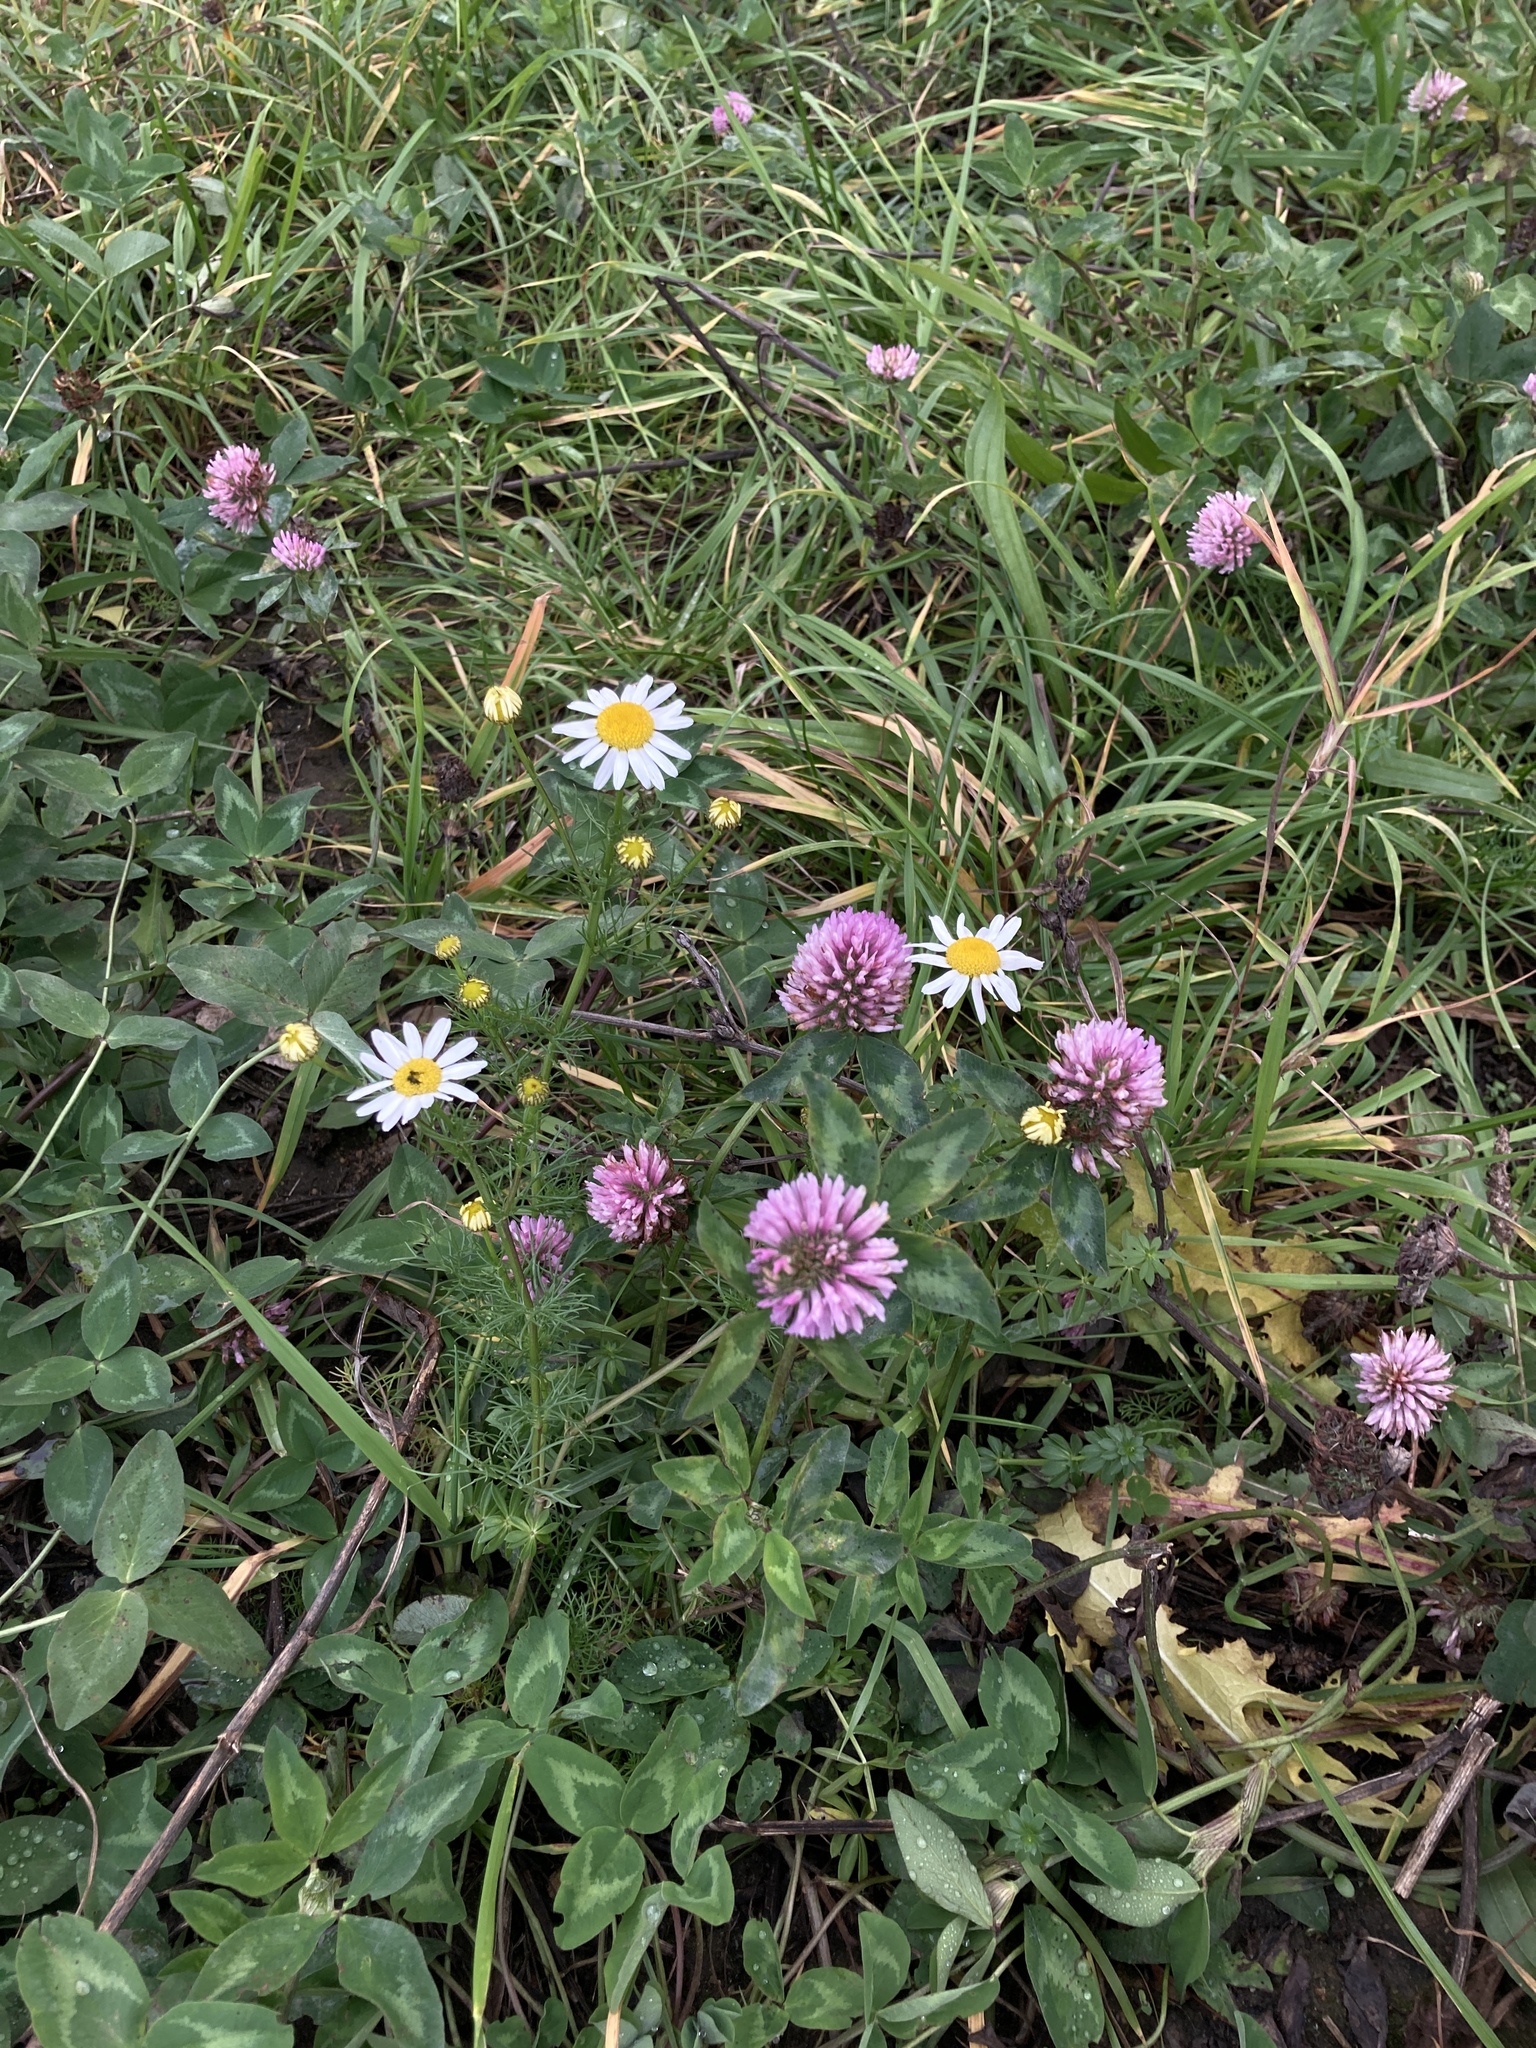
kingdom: Plantae
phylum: Tracheophyta
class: Magnoliopsida
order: Fabales
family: Fabaceae
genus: Trifolium
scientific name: Trifolium pratense
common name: Red clover
